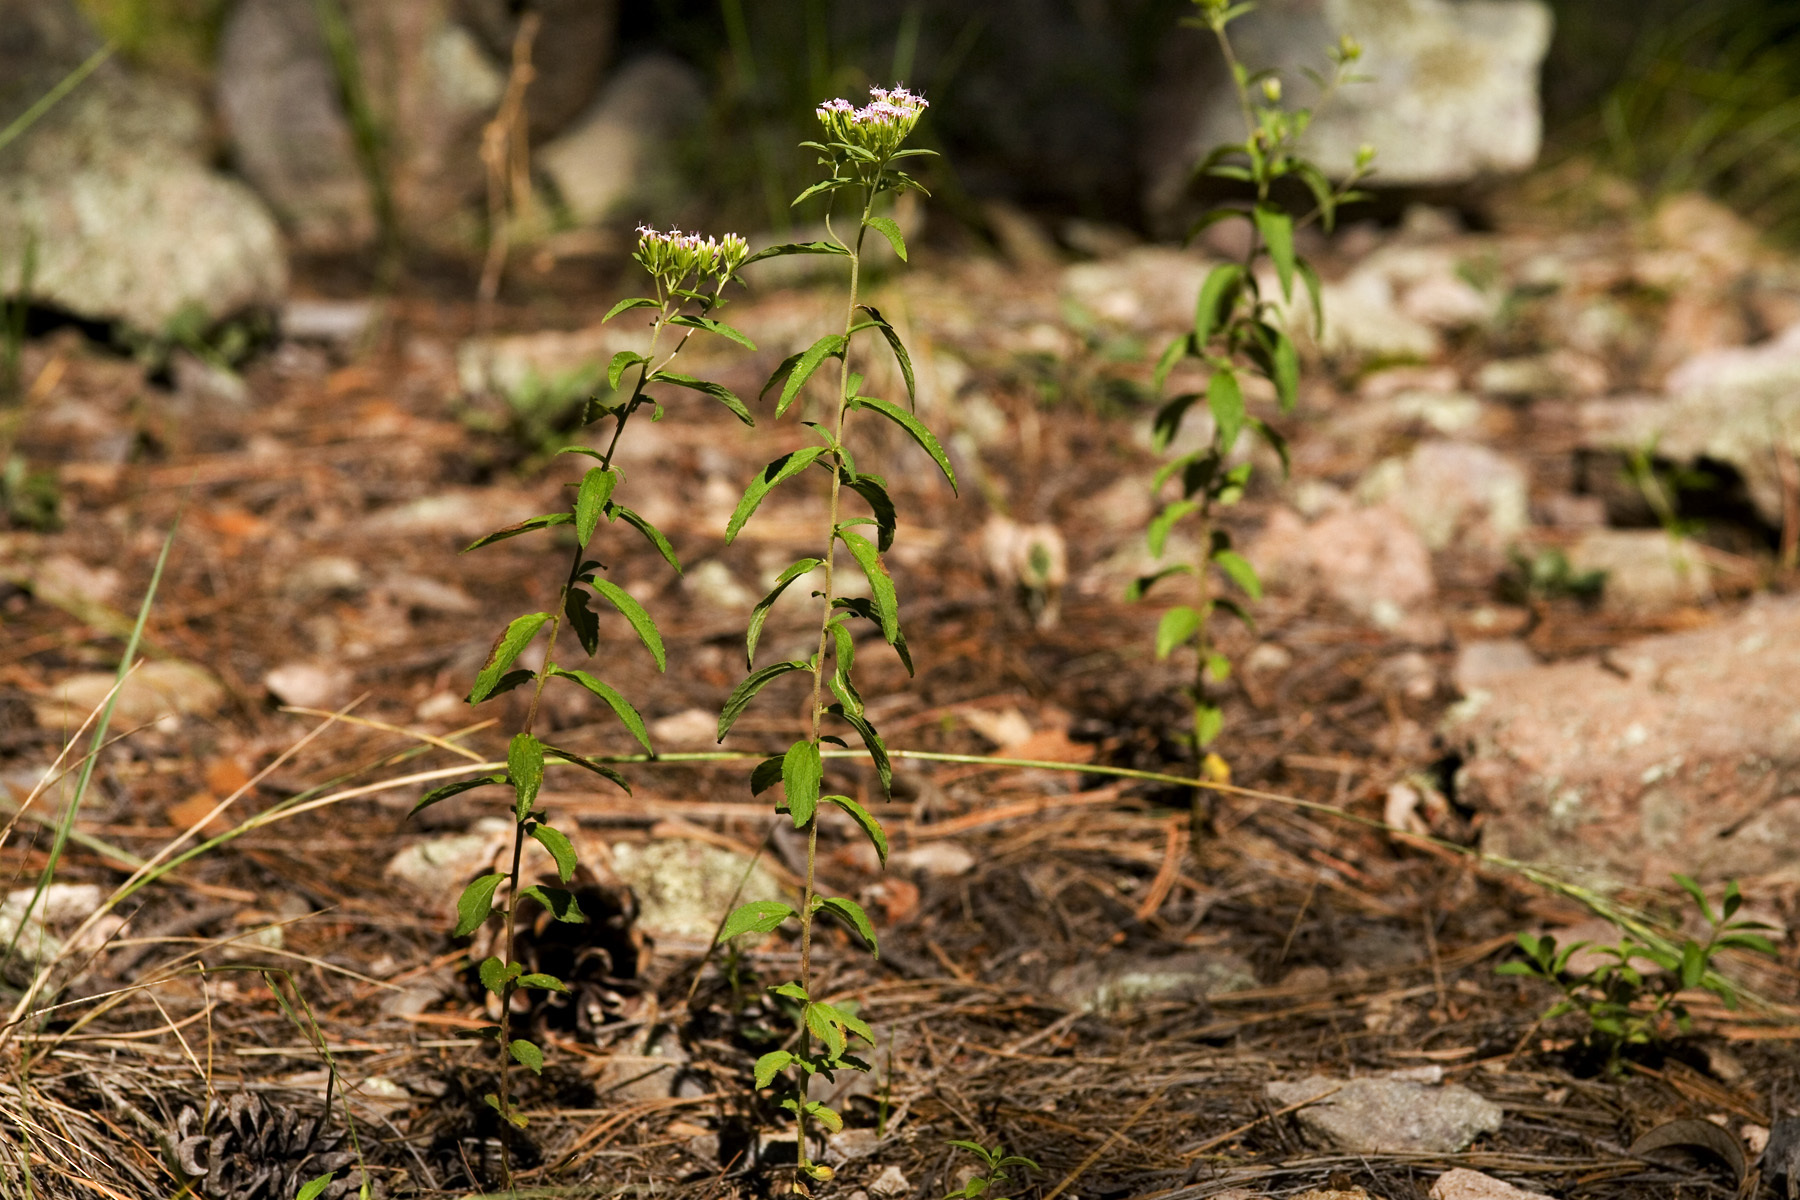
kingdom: Plantae
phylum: Tracheophyta
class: Magnoliopsida
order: Asterales
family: Asteraceae
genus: Stevia
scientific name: Stevia serrata
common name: Sawtooth candyleaf
